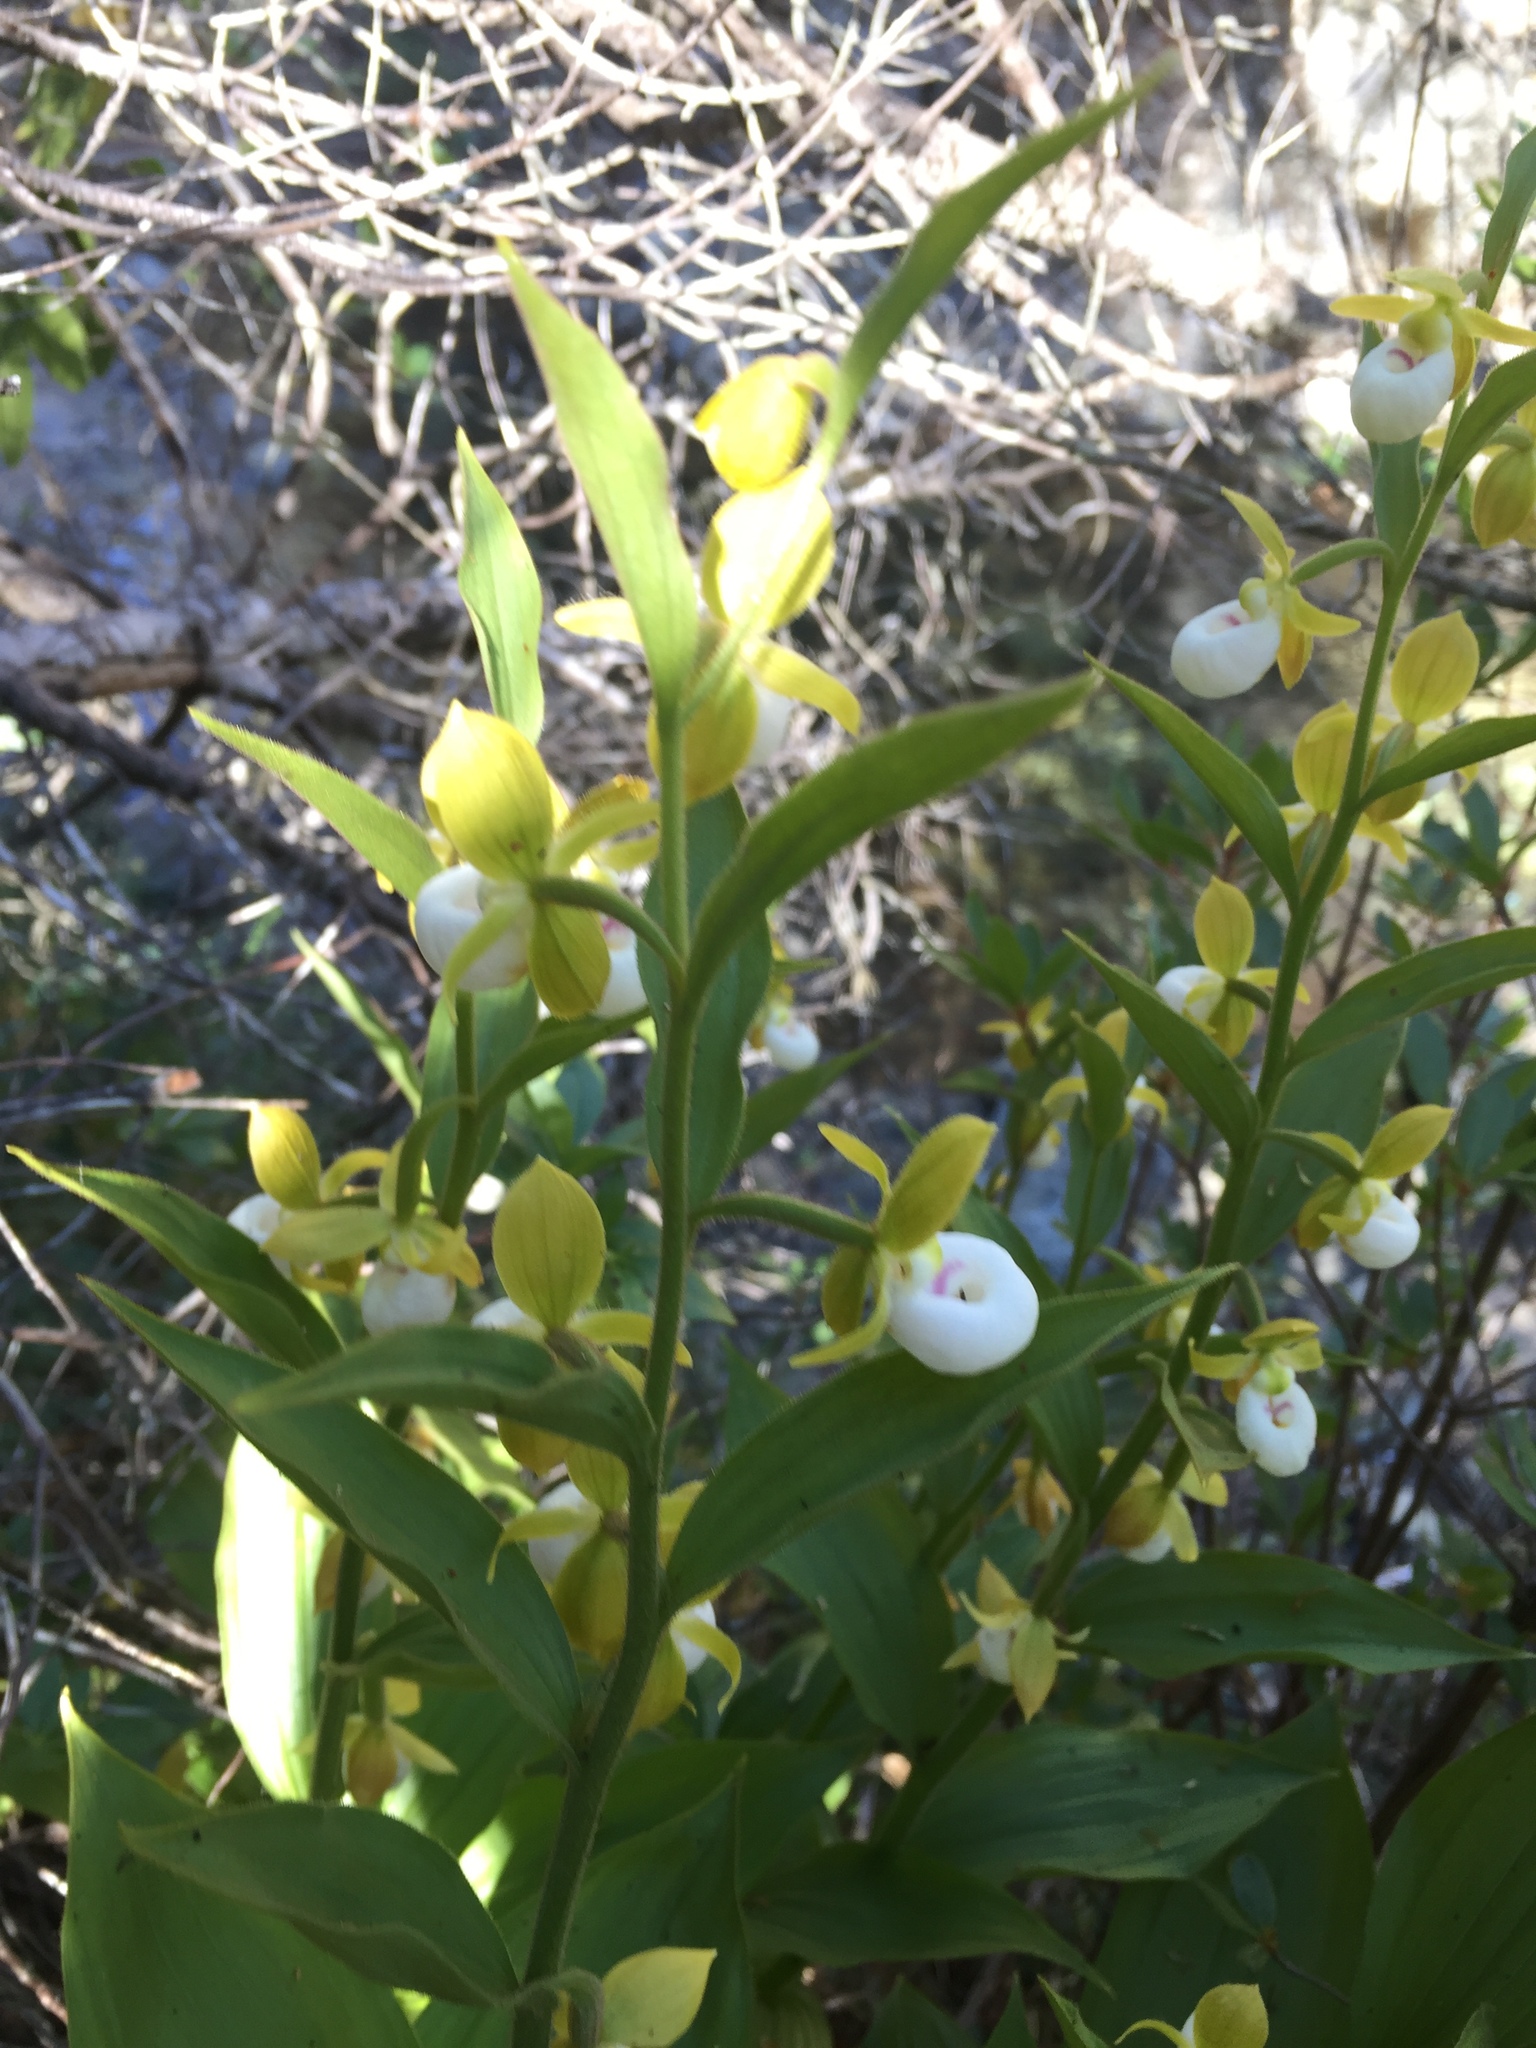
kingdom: Plantae
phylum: Tracheophyta
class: Liliopsida
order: Asparagales
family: Orchidaceae
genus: Cypripedium
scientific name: Cypripedium californicum
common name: California lady's slipper
